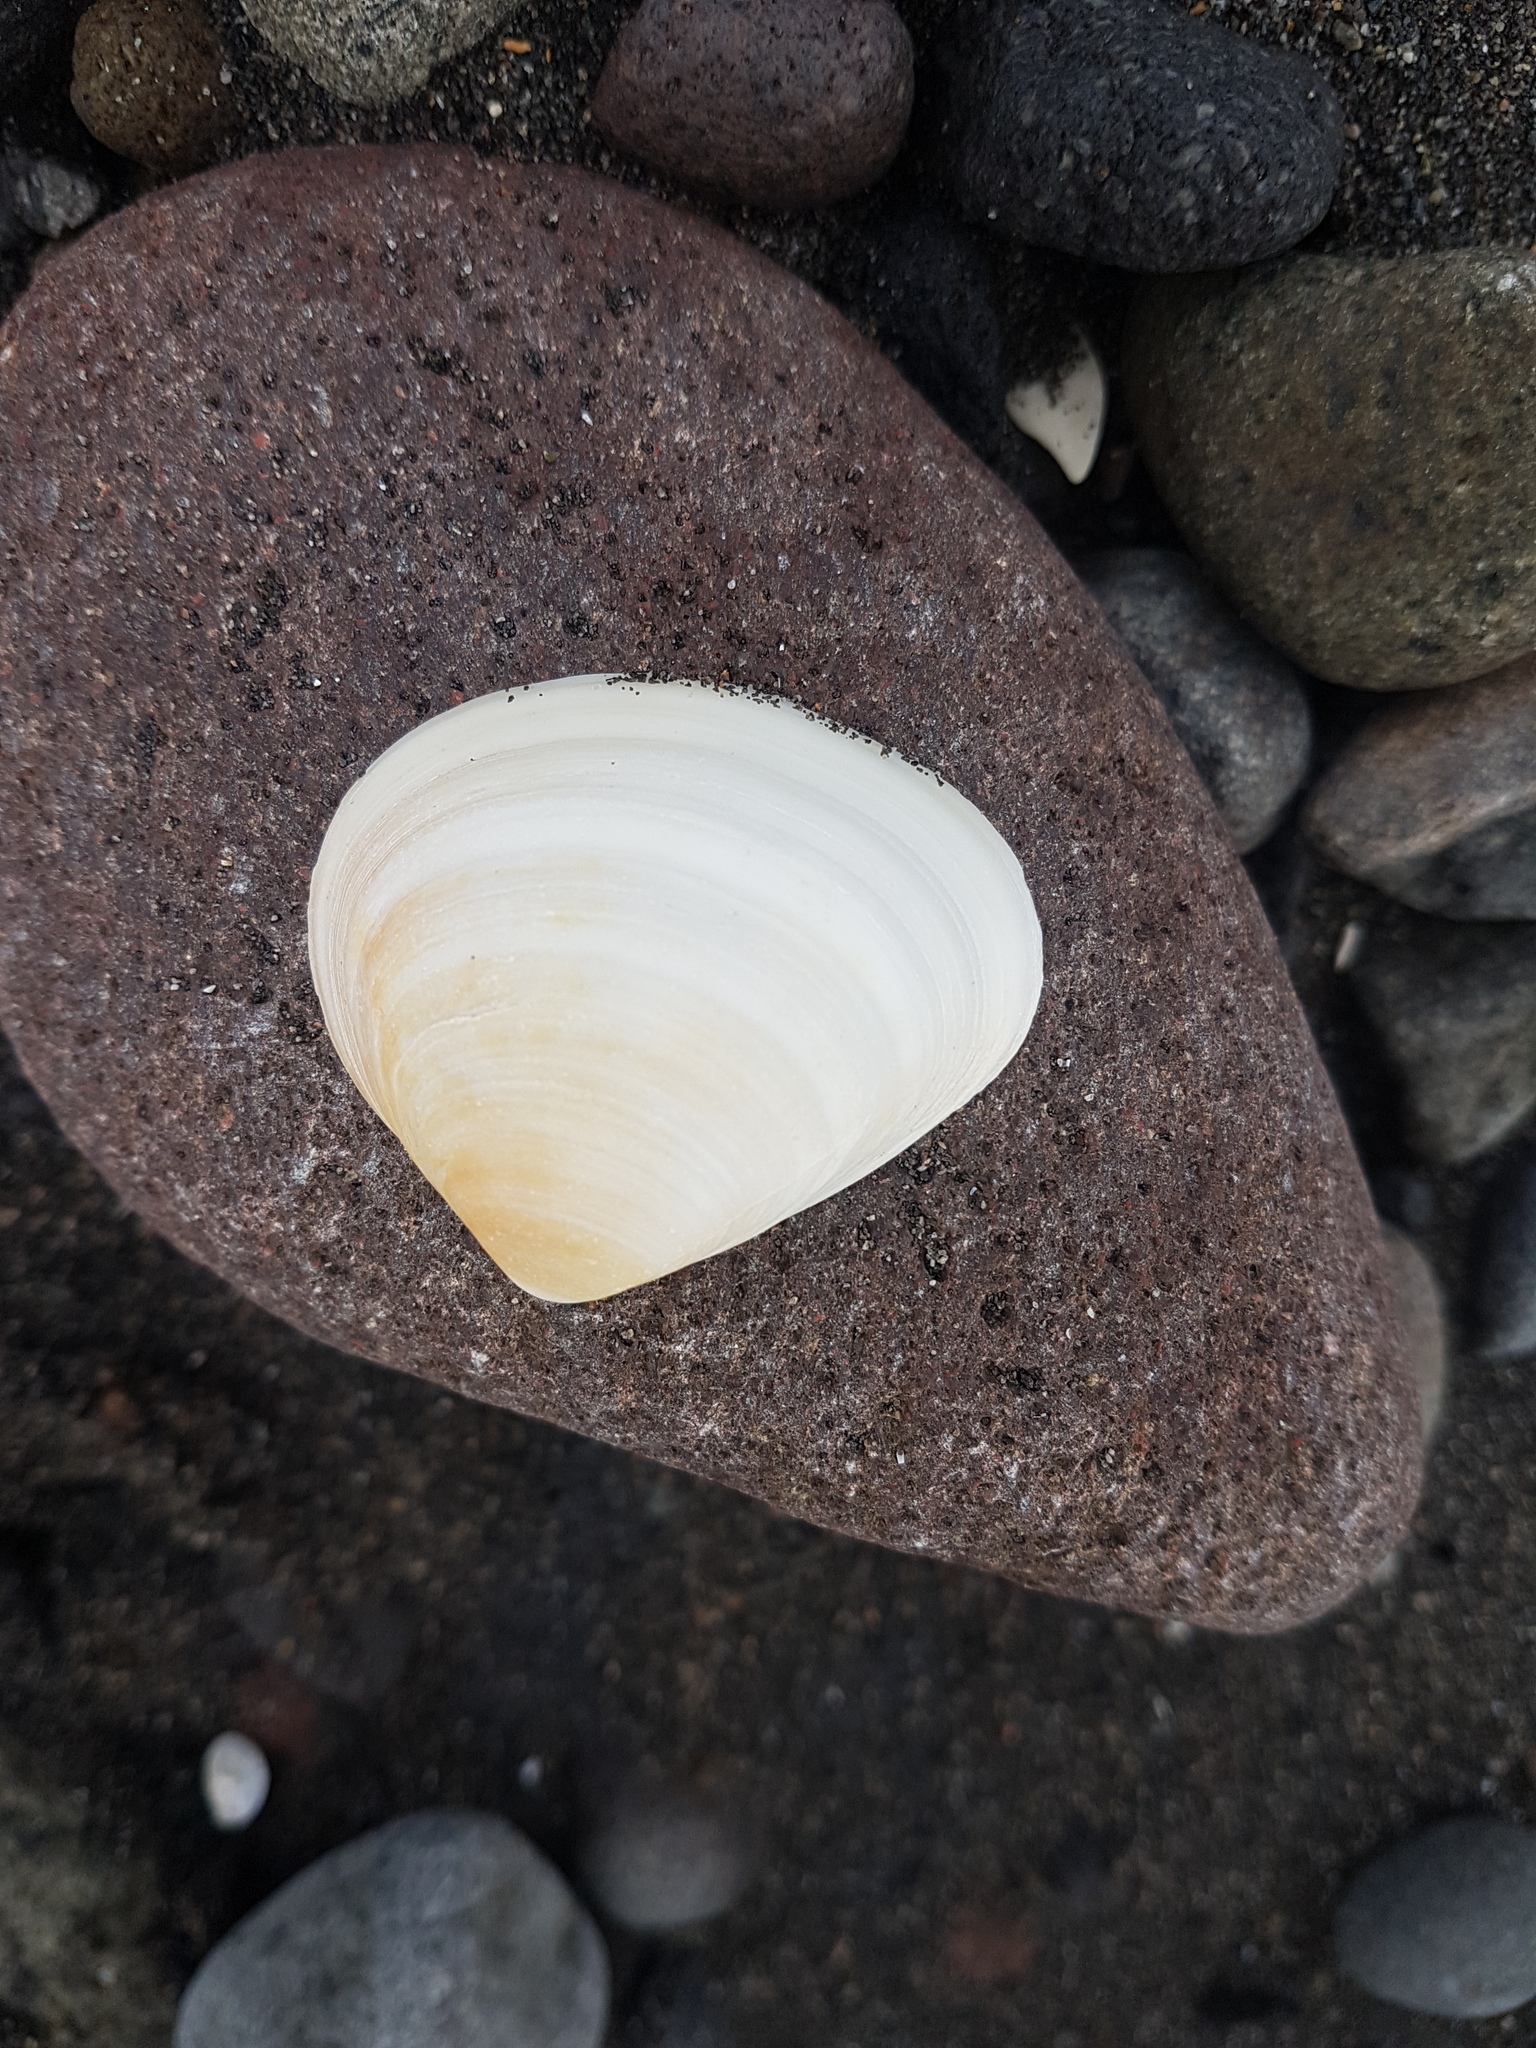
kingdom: Animalia
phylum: Mollusca
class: Bivalvia
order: Venerida
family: Mactridae
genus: Spisula
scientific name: Spisula murchisoni
